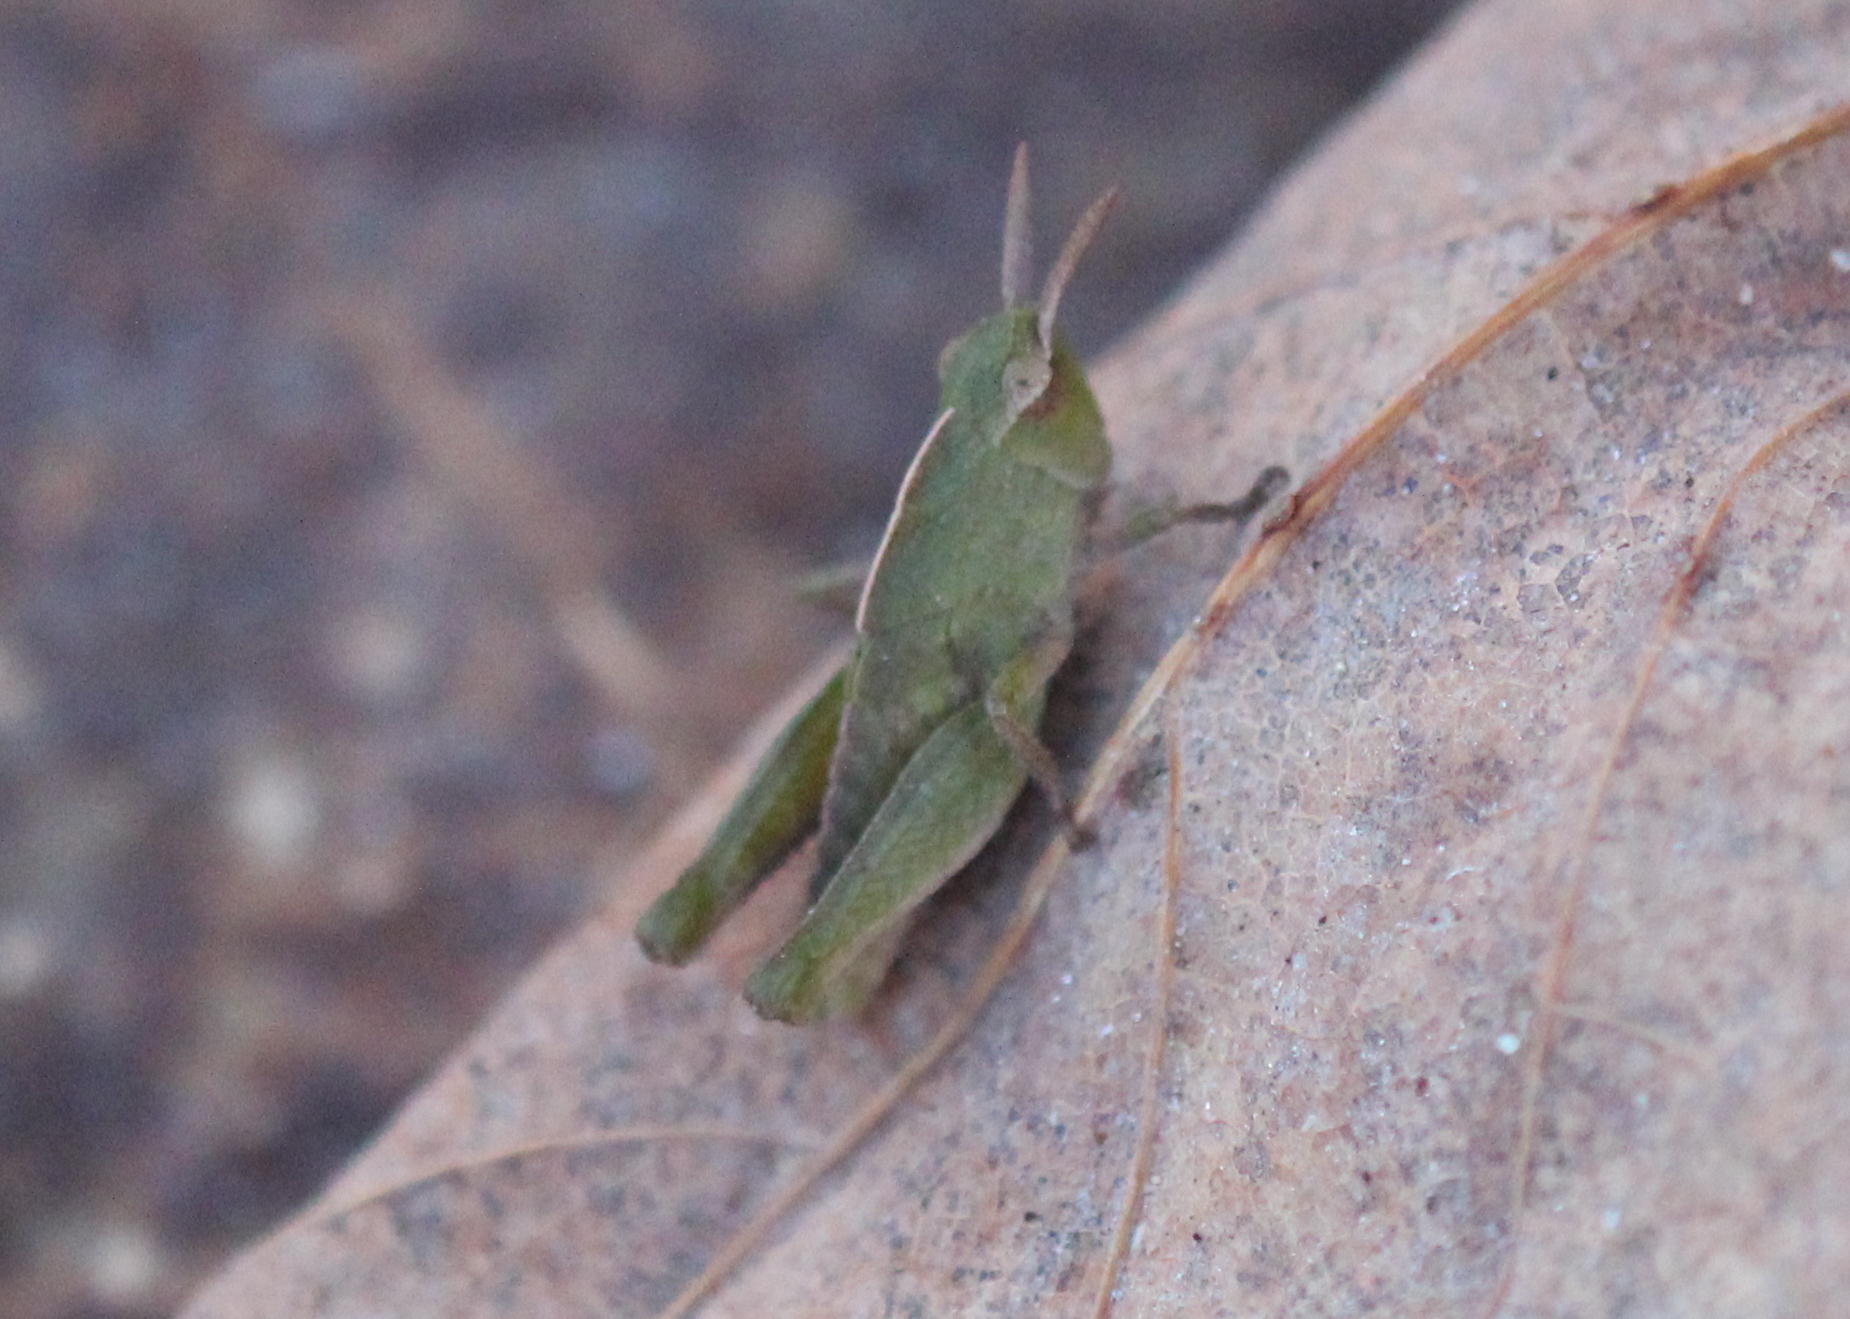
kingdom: Animalia
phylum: Arthropoda
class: Insecta
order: Orthoptera
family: Acrididae
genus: Chortophaga
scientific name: Chortophaga viridifasciata
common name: Green-striped grasshopper
